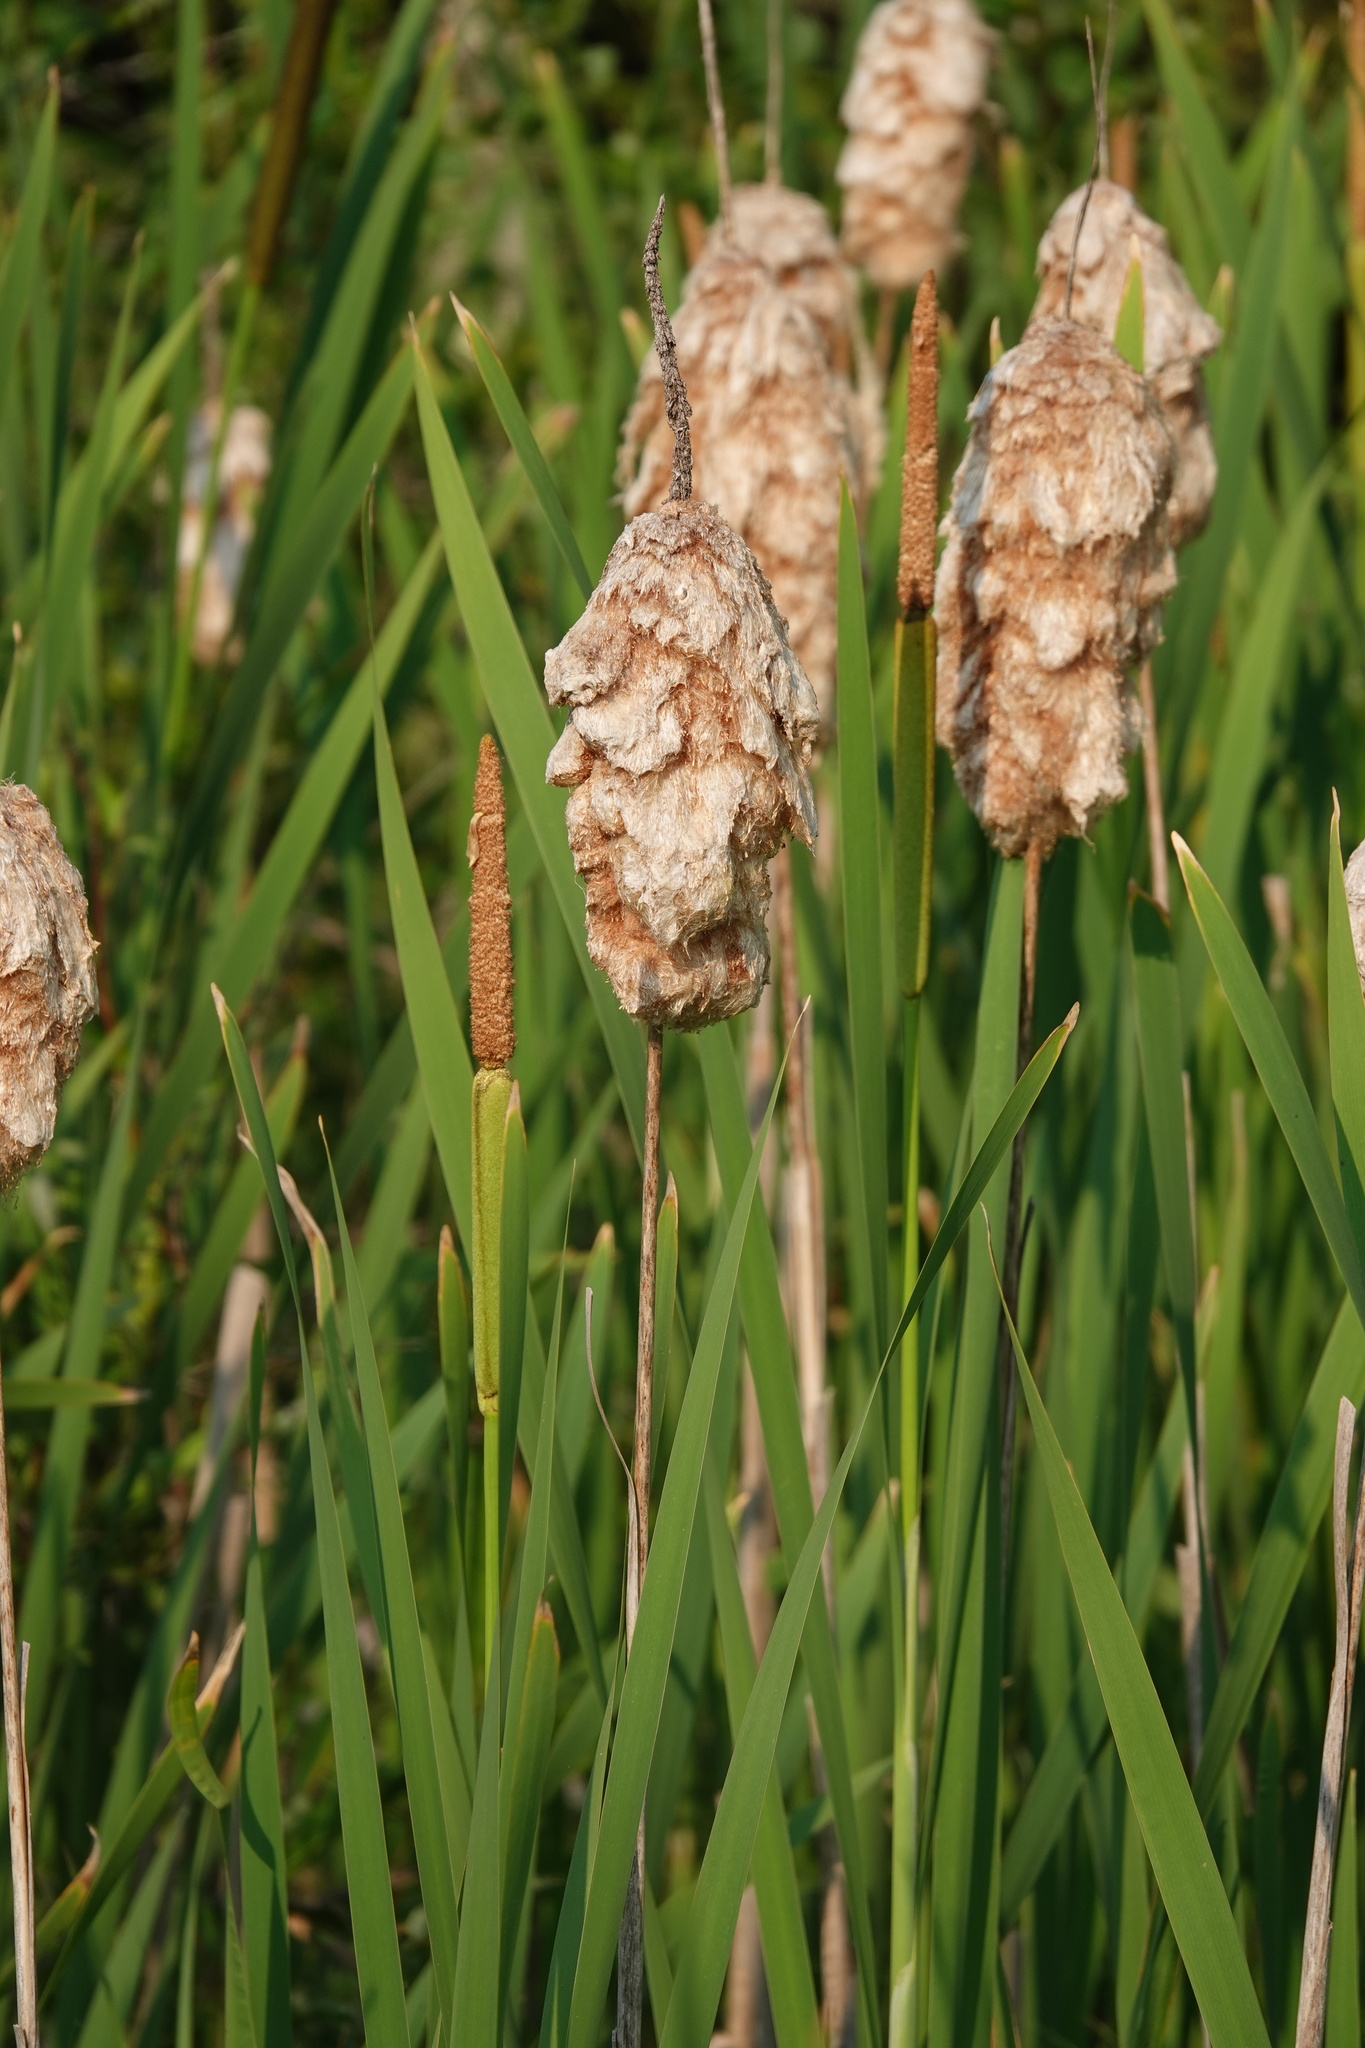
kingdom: Plantae
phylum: Tracheophyta
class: Liliopsida
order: Poales
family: Typhaceae
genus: Typha
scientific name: Typha latifolia
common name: Broadleaf cattail
